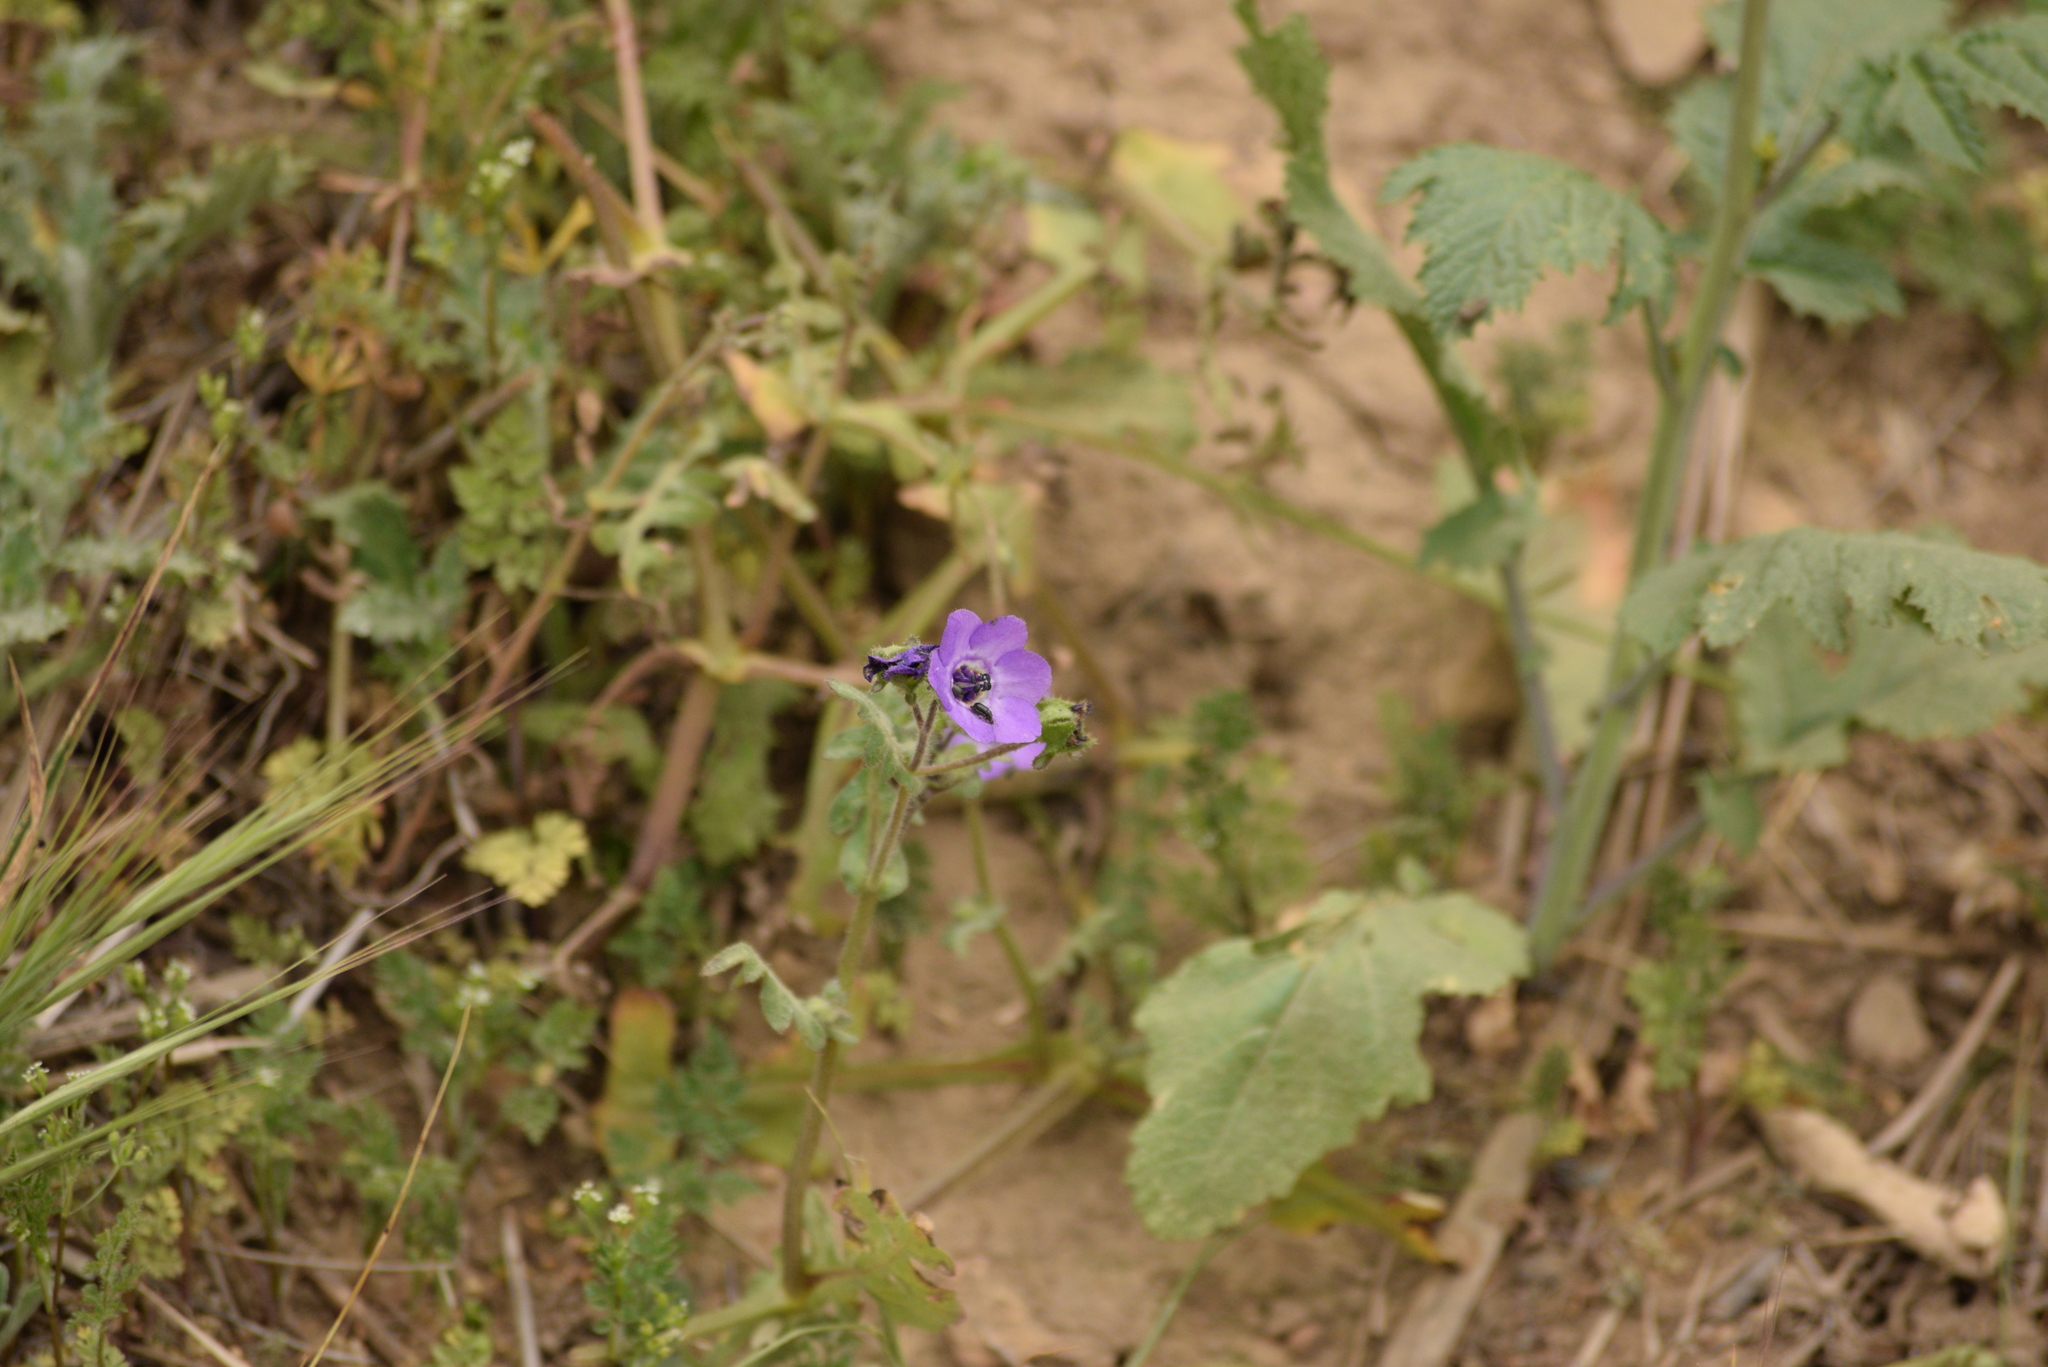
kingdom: Plantae
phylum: Tracheophyta
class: Magnoliopsida
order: Boraginales
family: Hydrophyllaceae
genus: Pholistoma
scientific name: Pholistoma auritum
